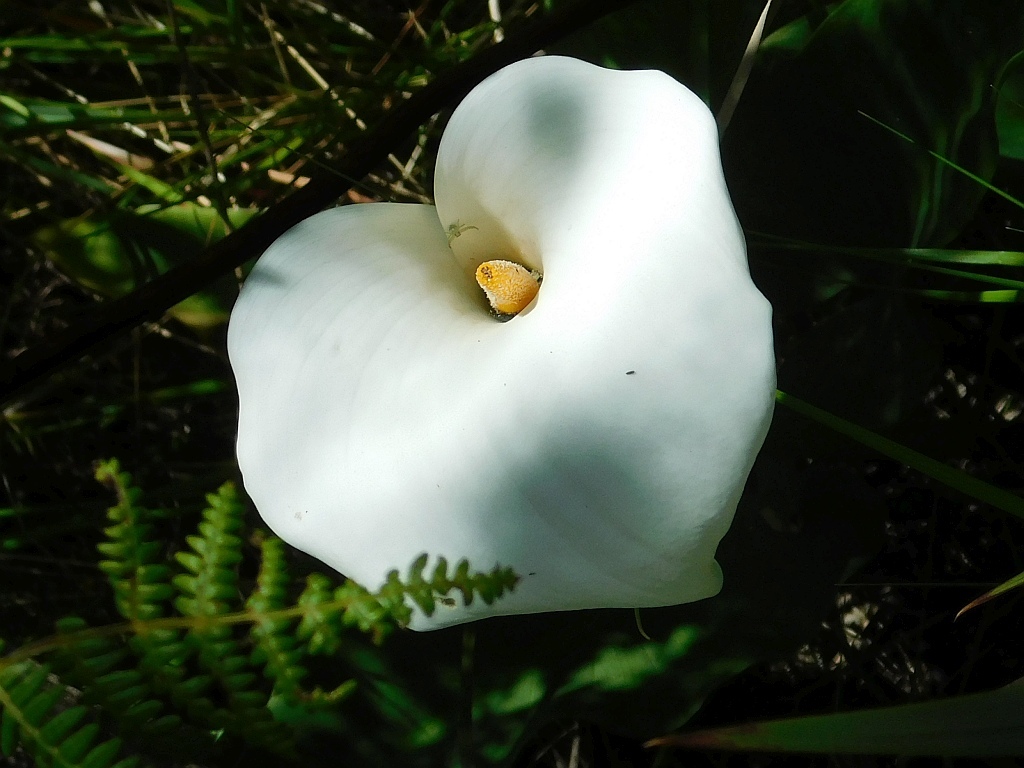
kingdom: Plantae
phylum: Tracheophyta
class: Liliopsida
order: Alismatales
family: Araceae
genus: Zantedeschia
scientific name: Zantedeschia aethiopica
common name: Altar-lily
